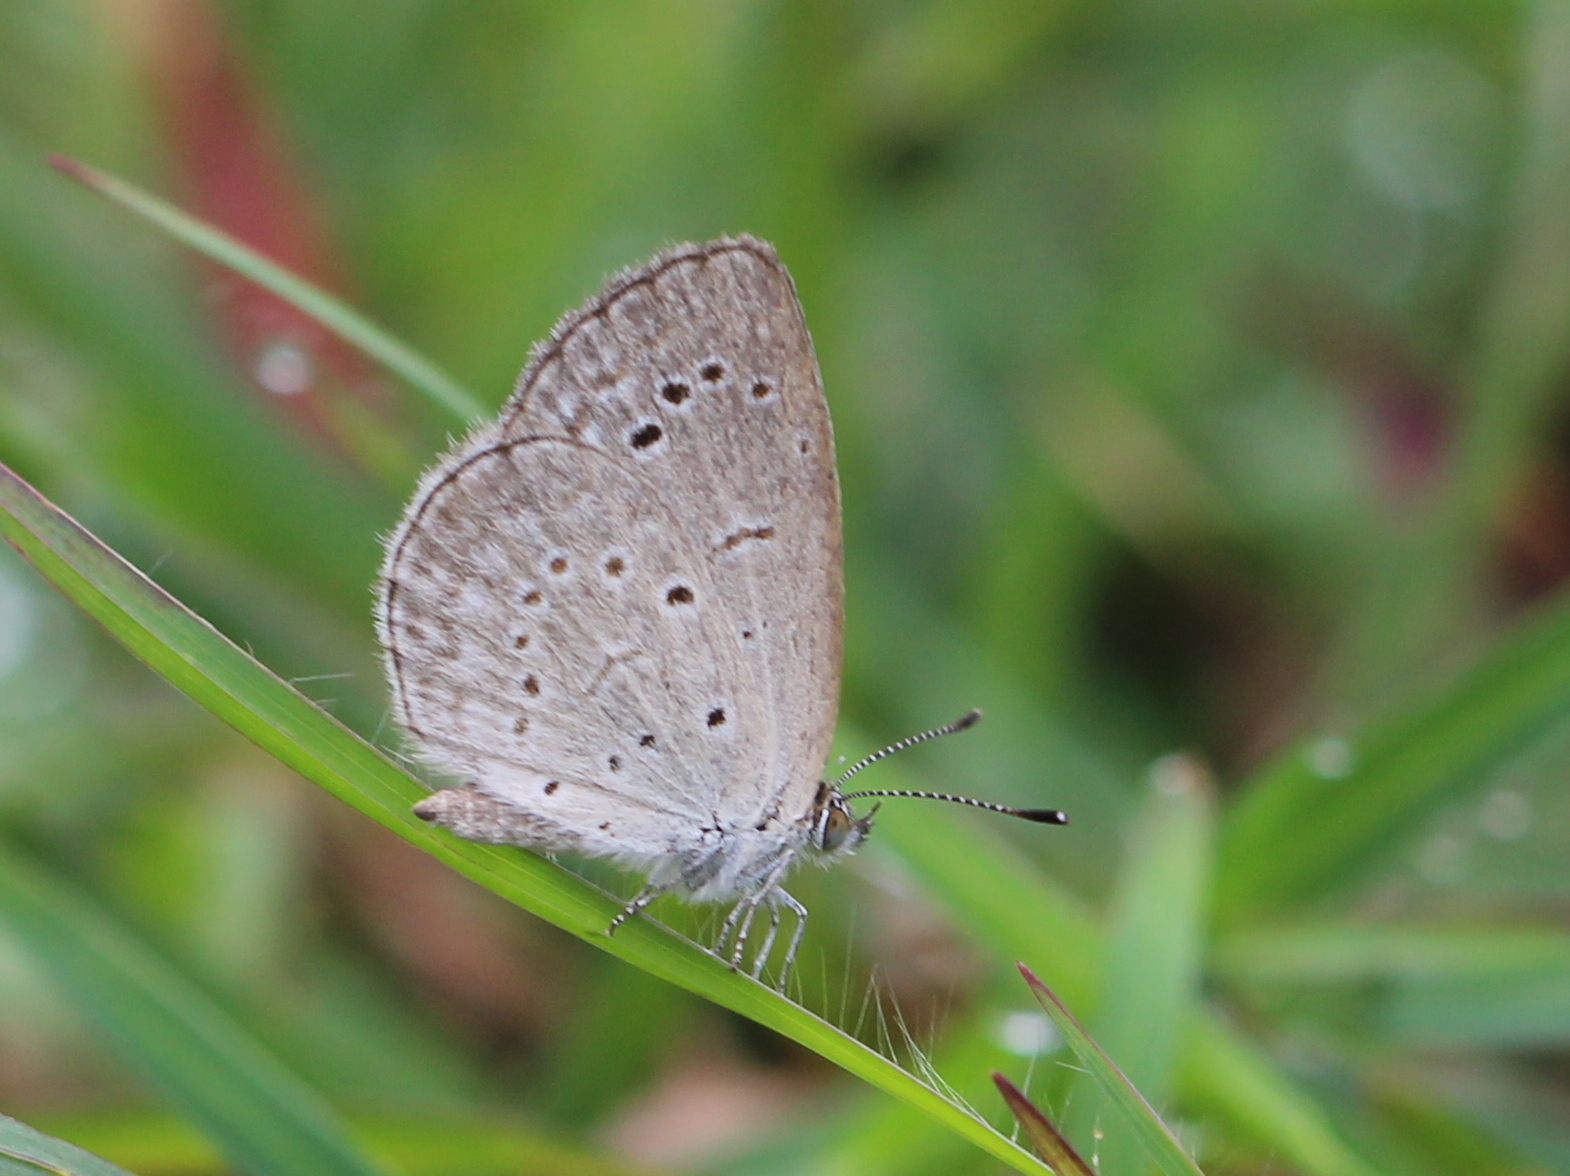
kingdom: Animalia
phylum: Arthropoda
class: Insecta
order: Lepidoptera
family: Lycaenidae
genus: Pseudozizeeria
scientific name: Pseudozizeeria maha
